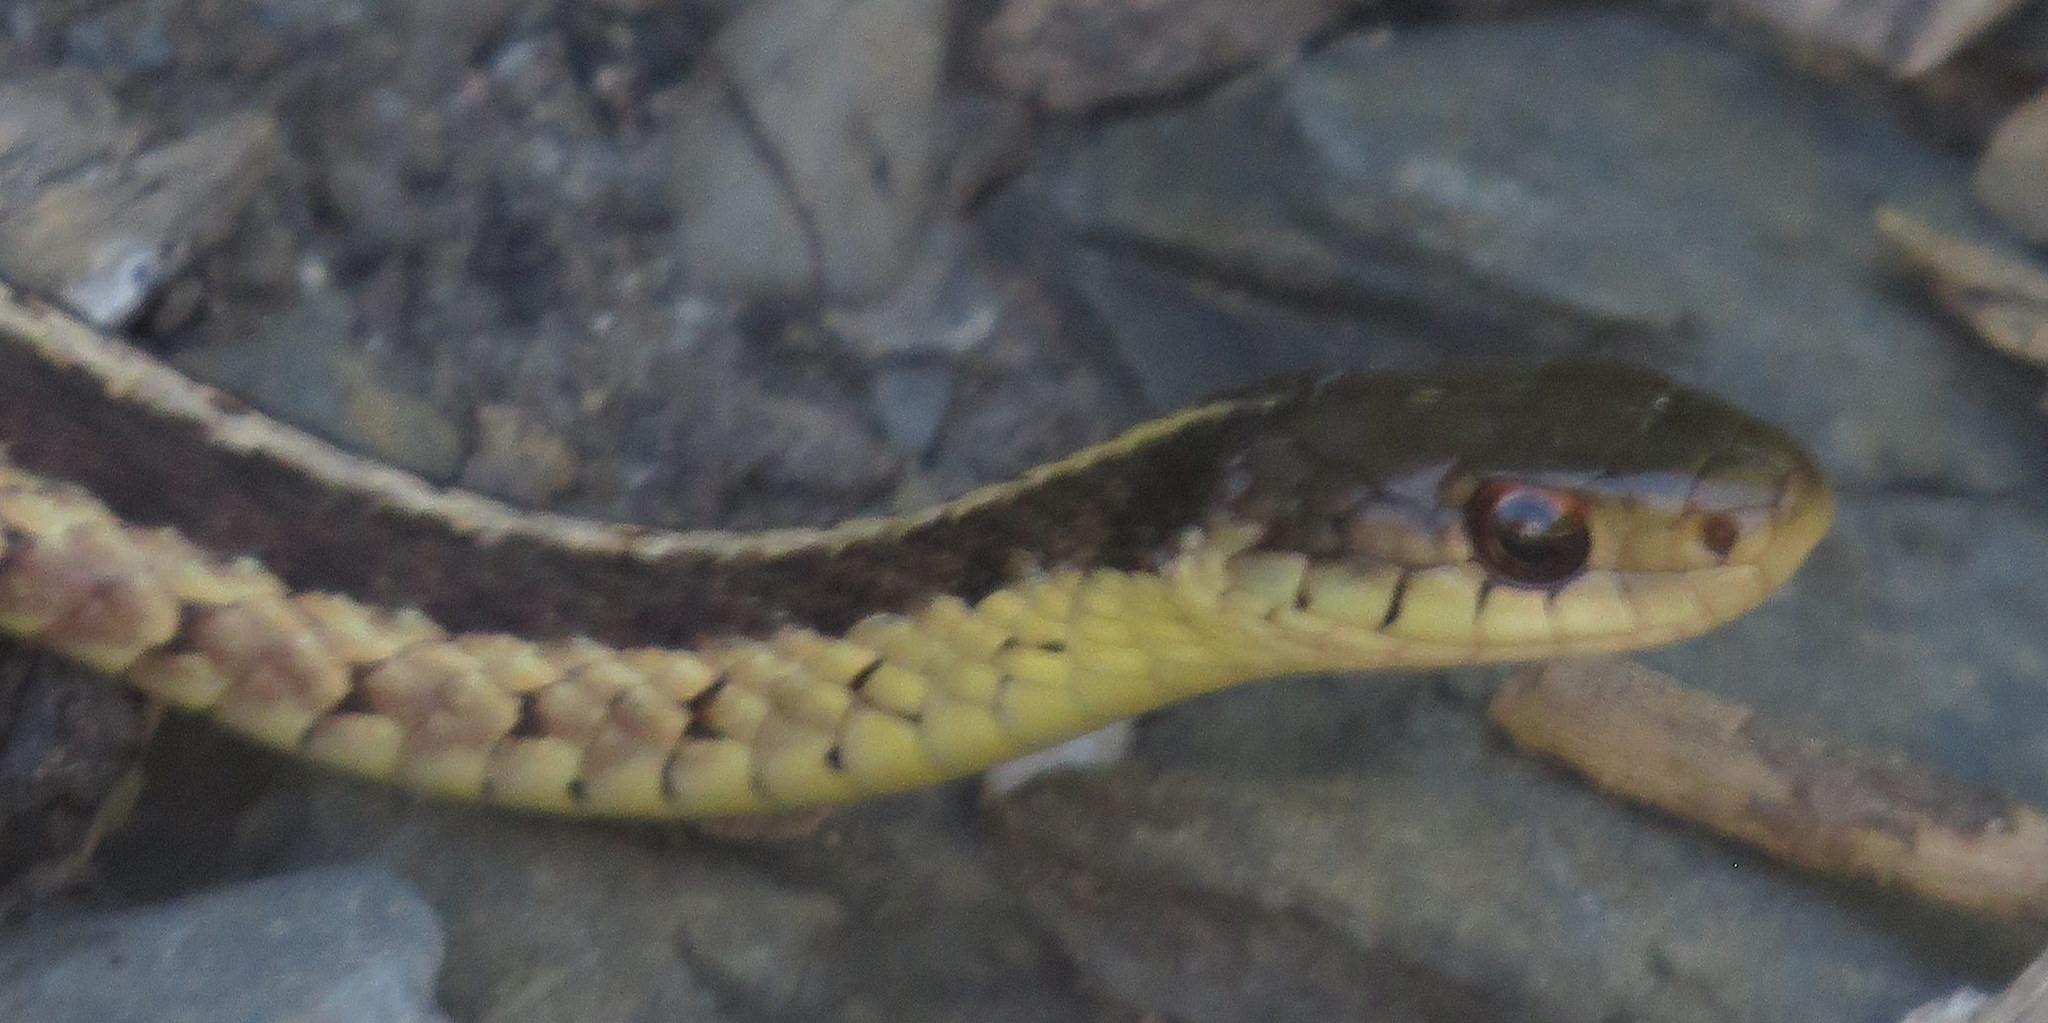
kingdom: Animalia
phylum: Chordata
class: Squamata
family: Colubridae
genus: Thamnophis
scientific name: Thamnophis sirtalis
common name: Common garter snake
